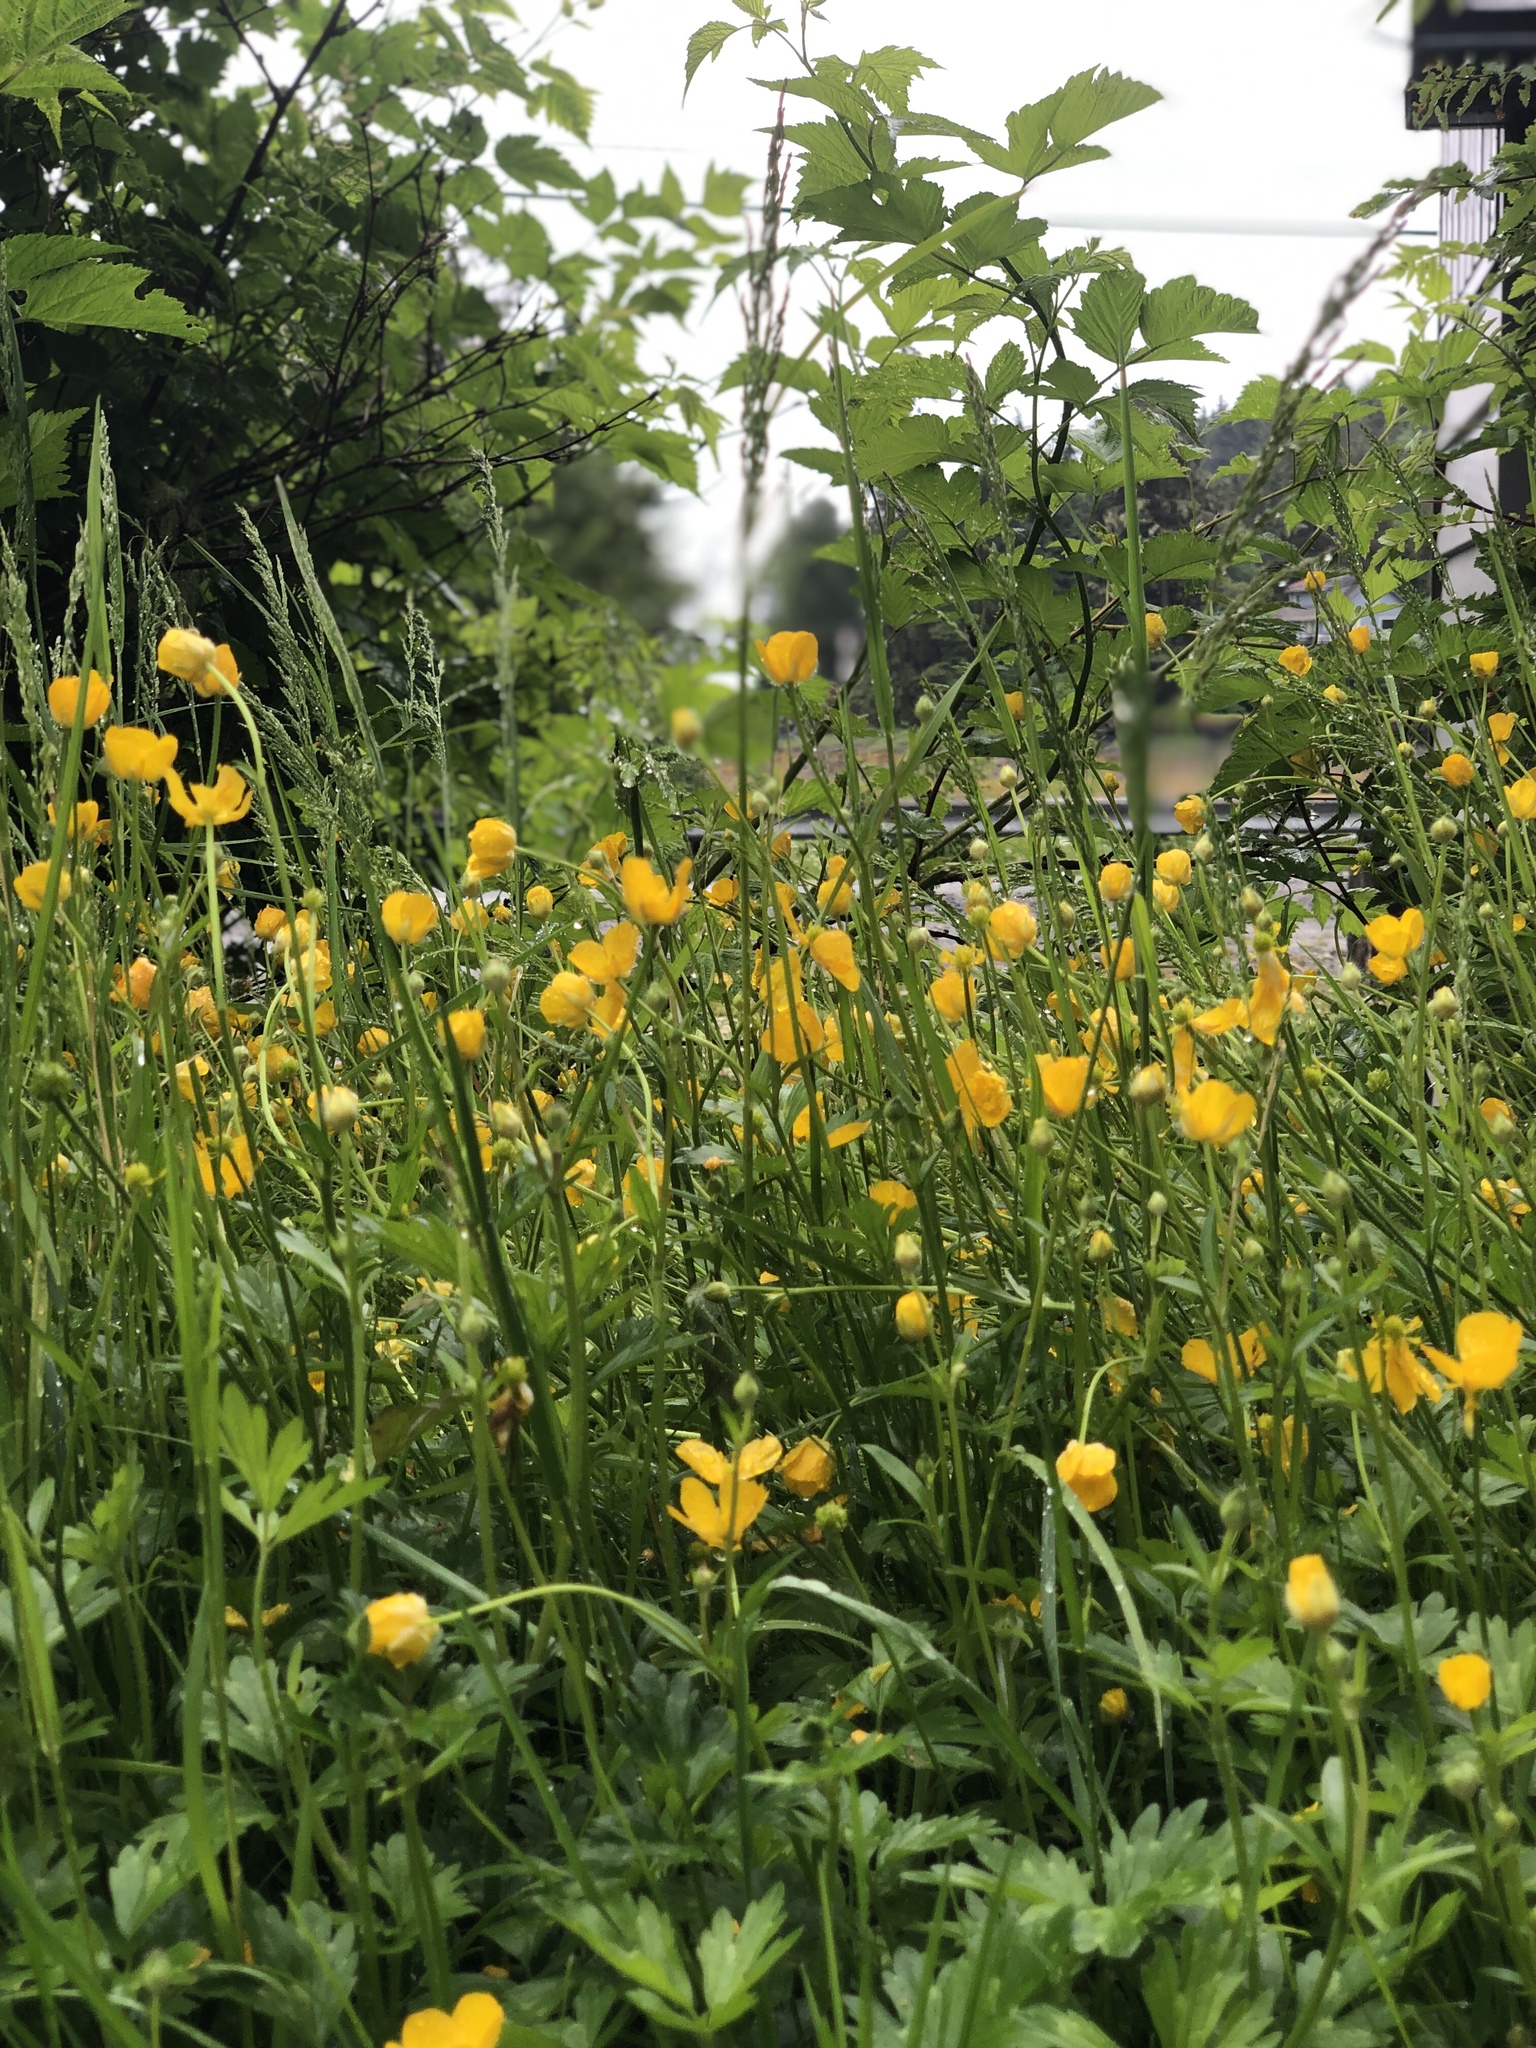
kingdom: Plantae
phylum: Tracheophyta
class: Magnoliopsida
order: Ranunculales
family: Ranunculaceae
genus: Ranunculus
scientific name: Ranunculus repens
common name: Creeping buttercup
